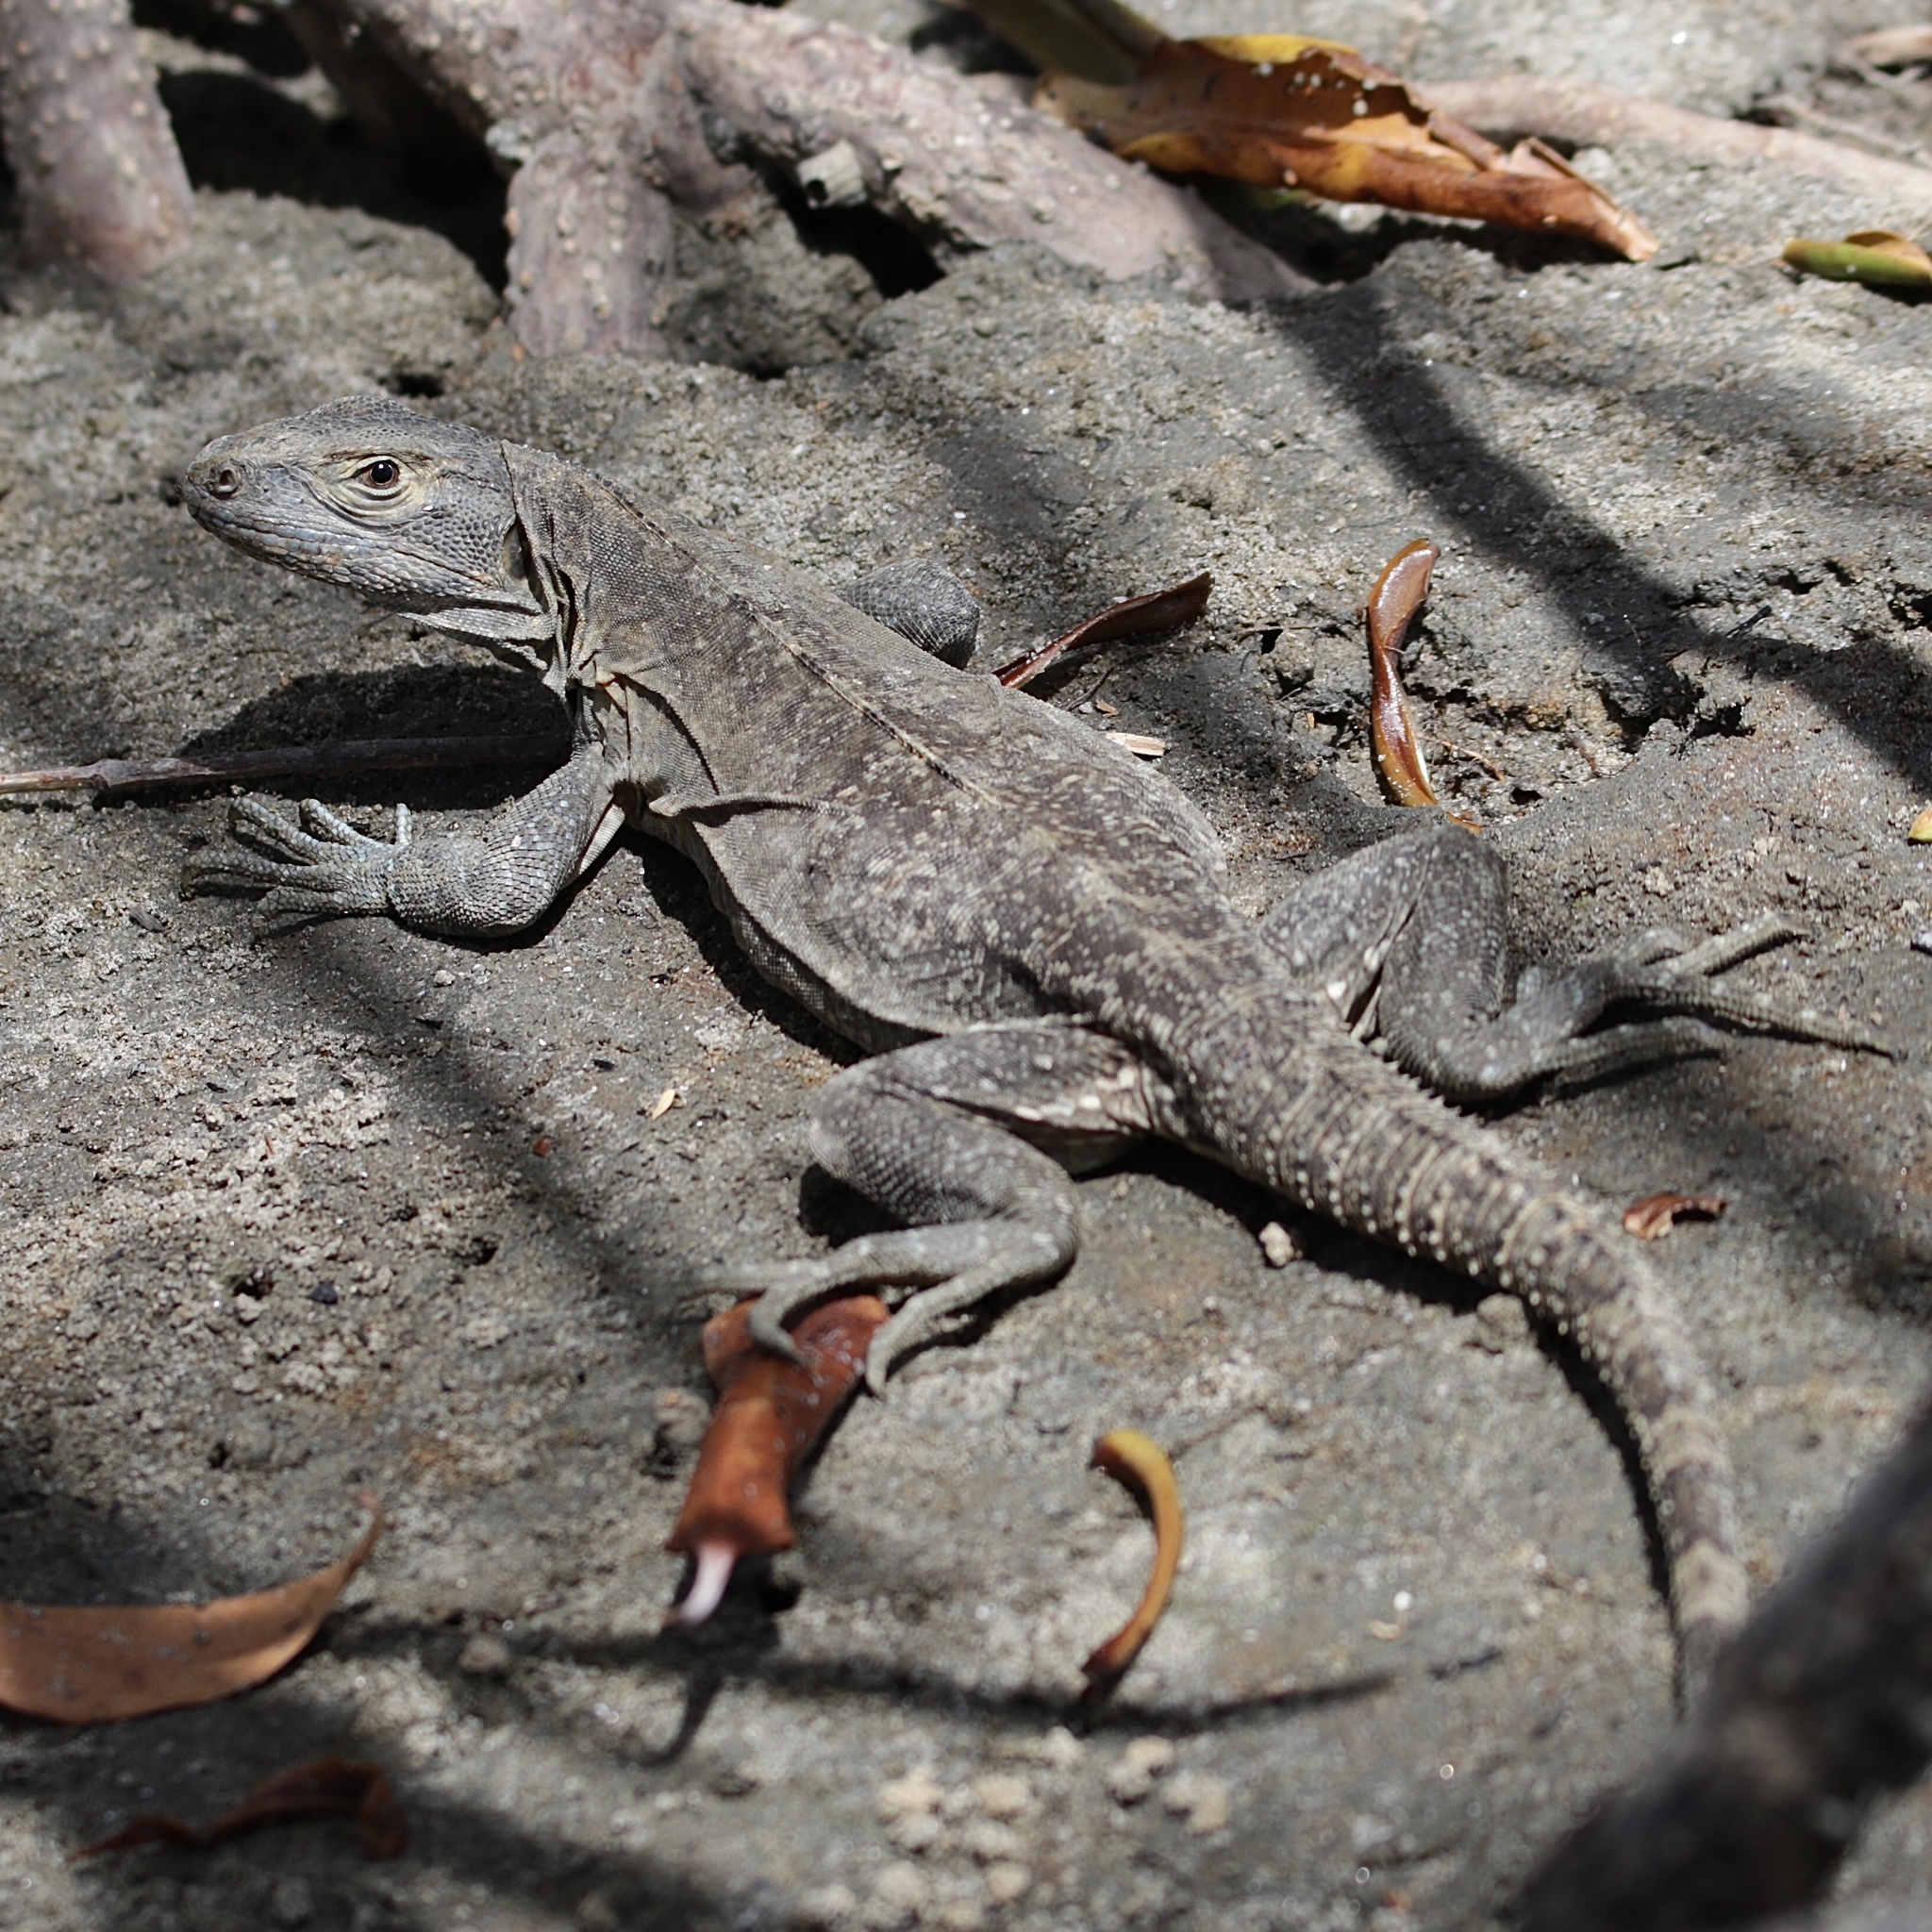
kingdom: Animalia
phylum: Chordata
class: Squamata
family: Iguanidae
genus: Ctenosaura
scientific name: Ctenosaura similis
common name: Black spiny-tailed iguana
